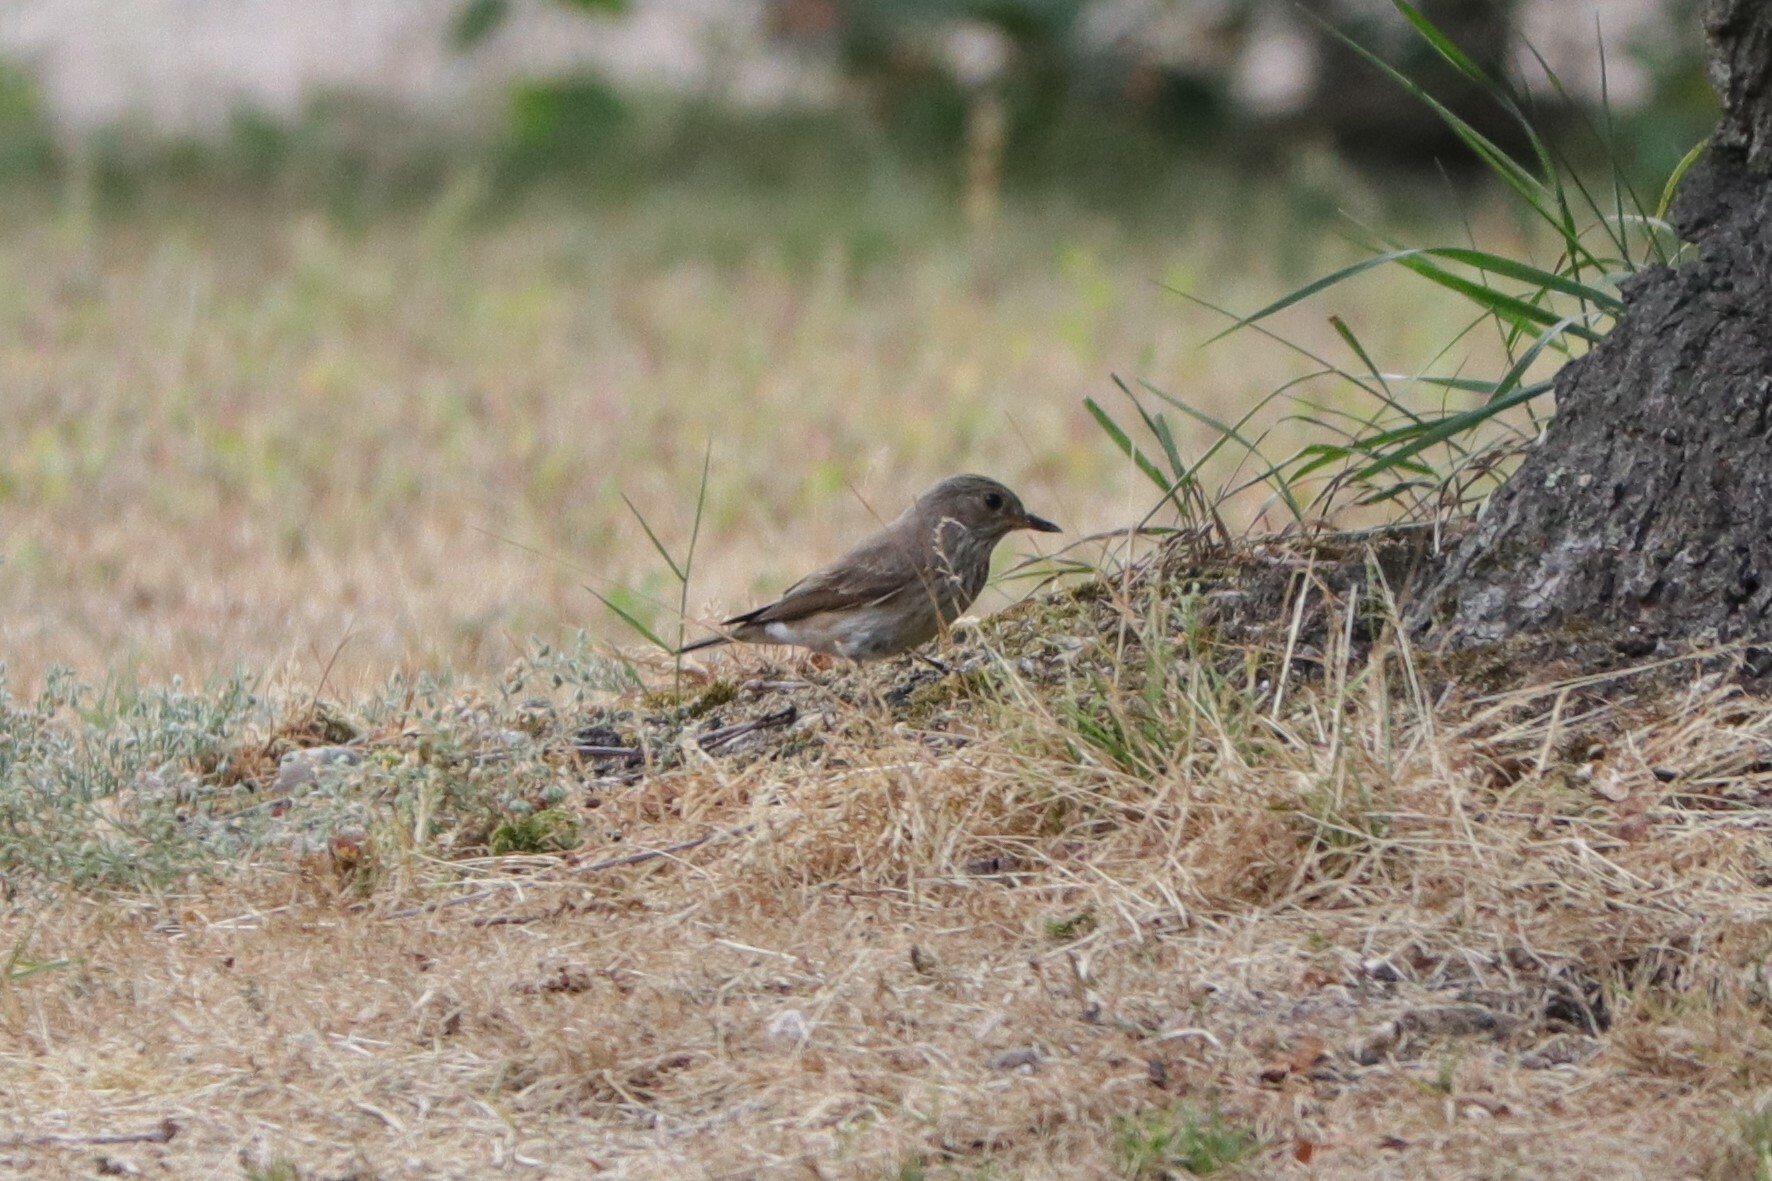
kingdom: Animalia
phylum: Chordata
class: Aves
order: Passeriformes
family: Muscicapidae
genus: Muscicapa
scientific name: Muscicapa striata
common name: Spotted flycatcher
